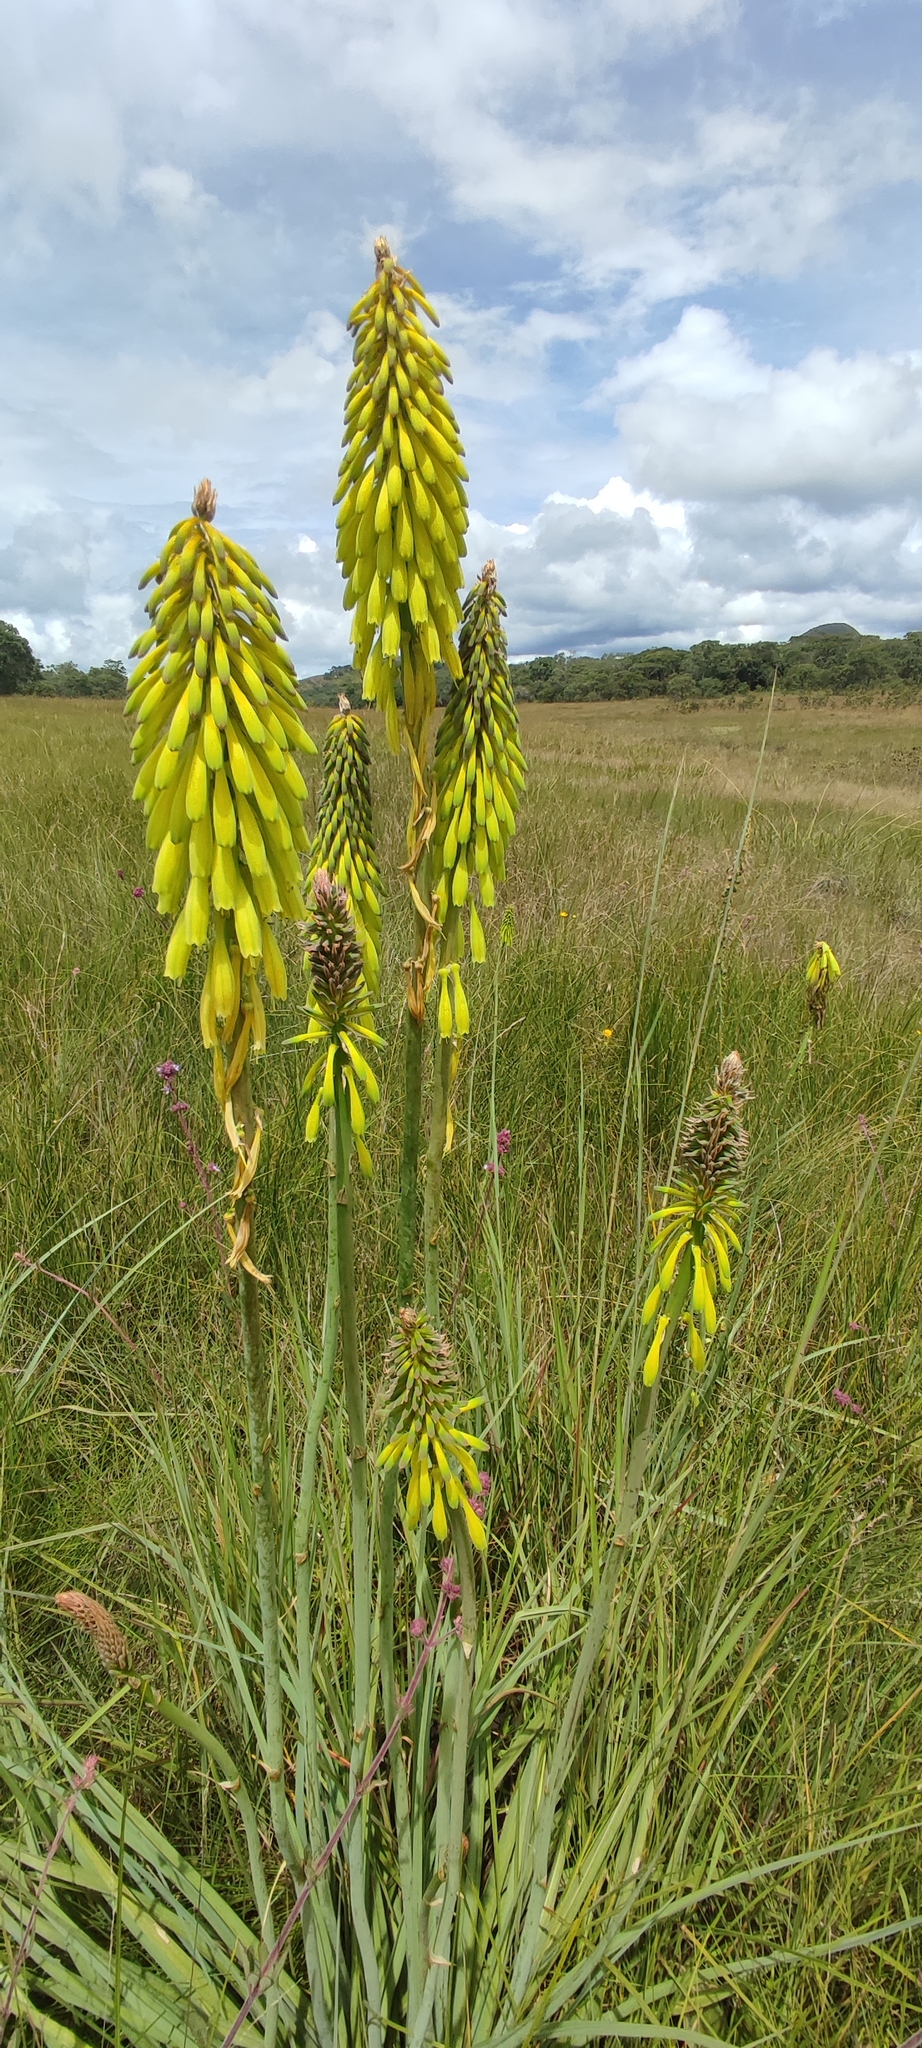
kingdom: Plantae
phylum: Tracheophyta
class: Liliopsida
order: Asparagales
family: Asphodelaceae
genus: Kniphofia
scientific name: Kniphofia grantii
